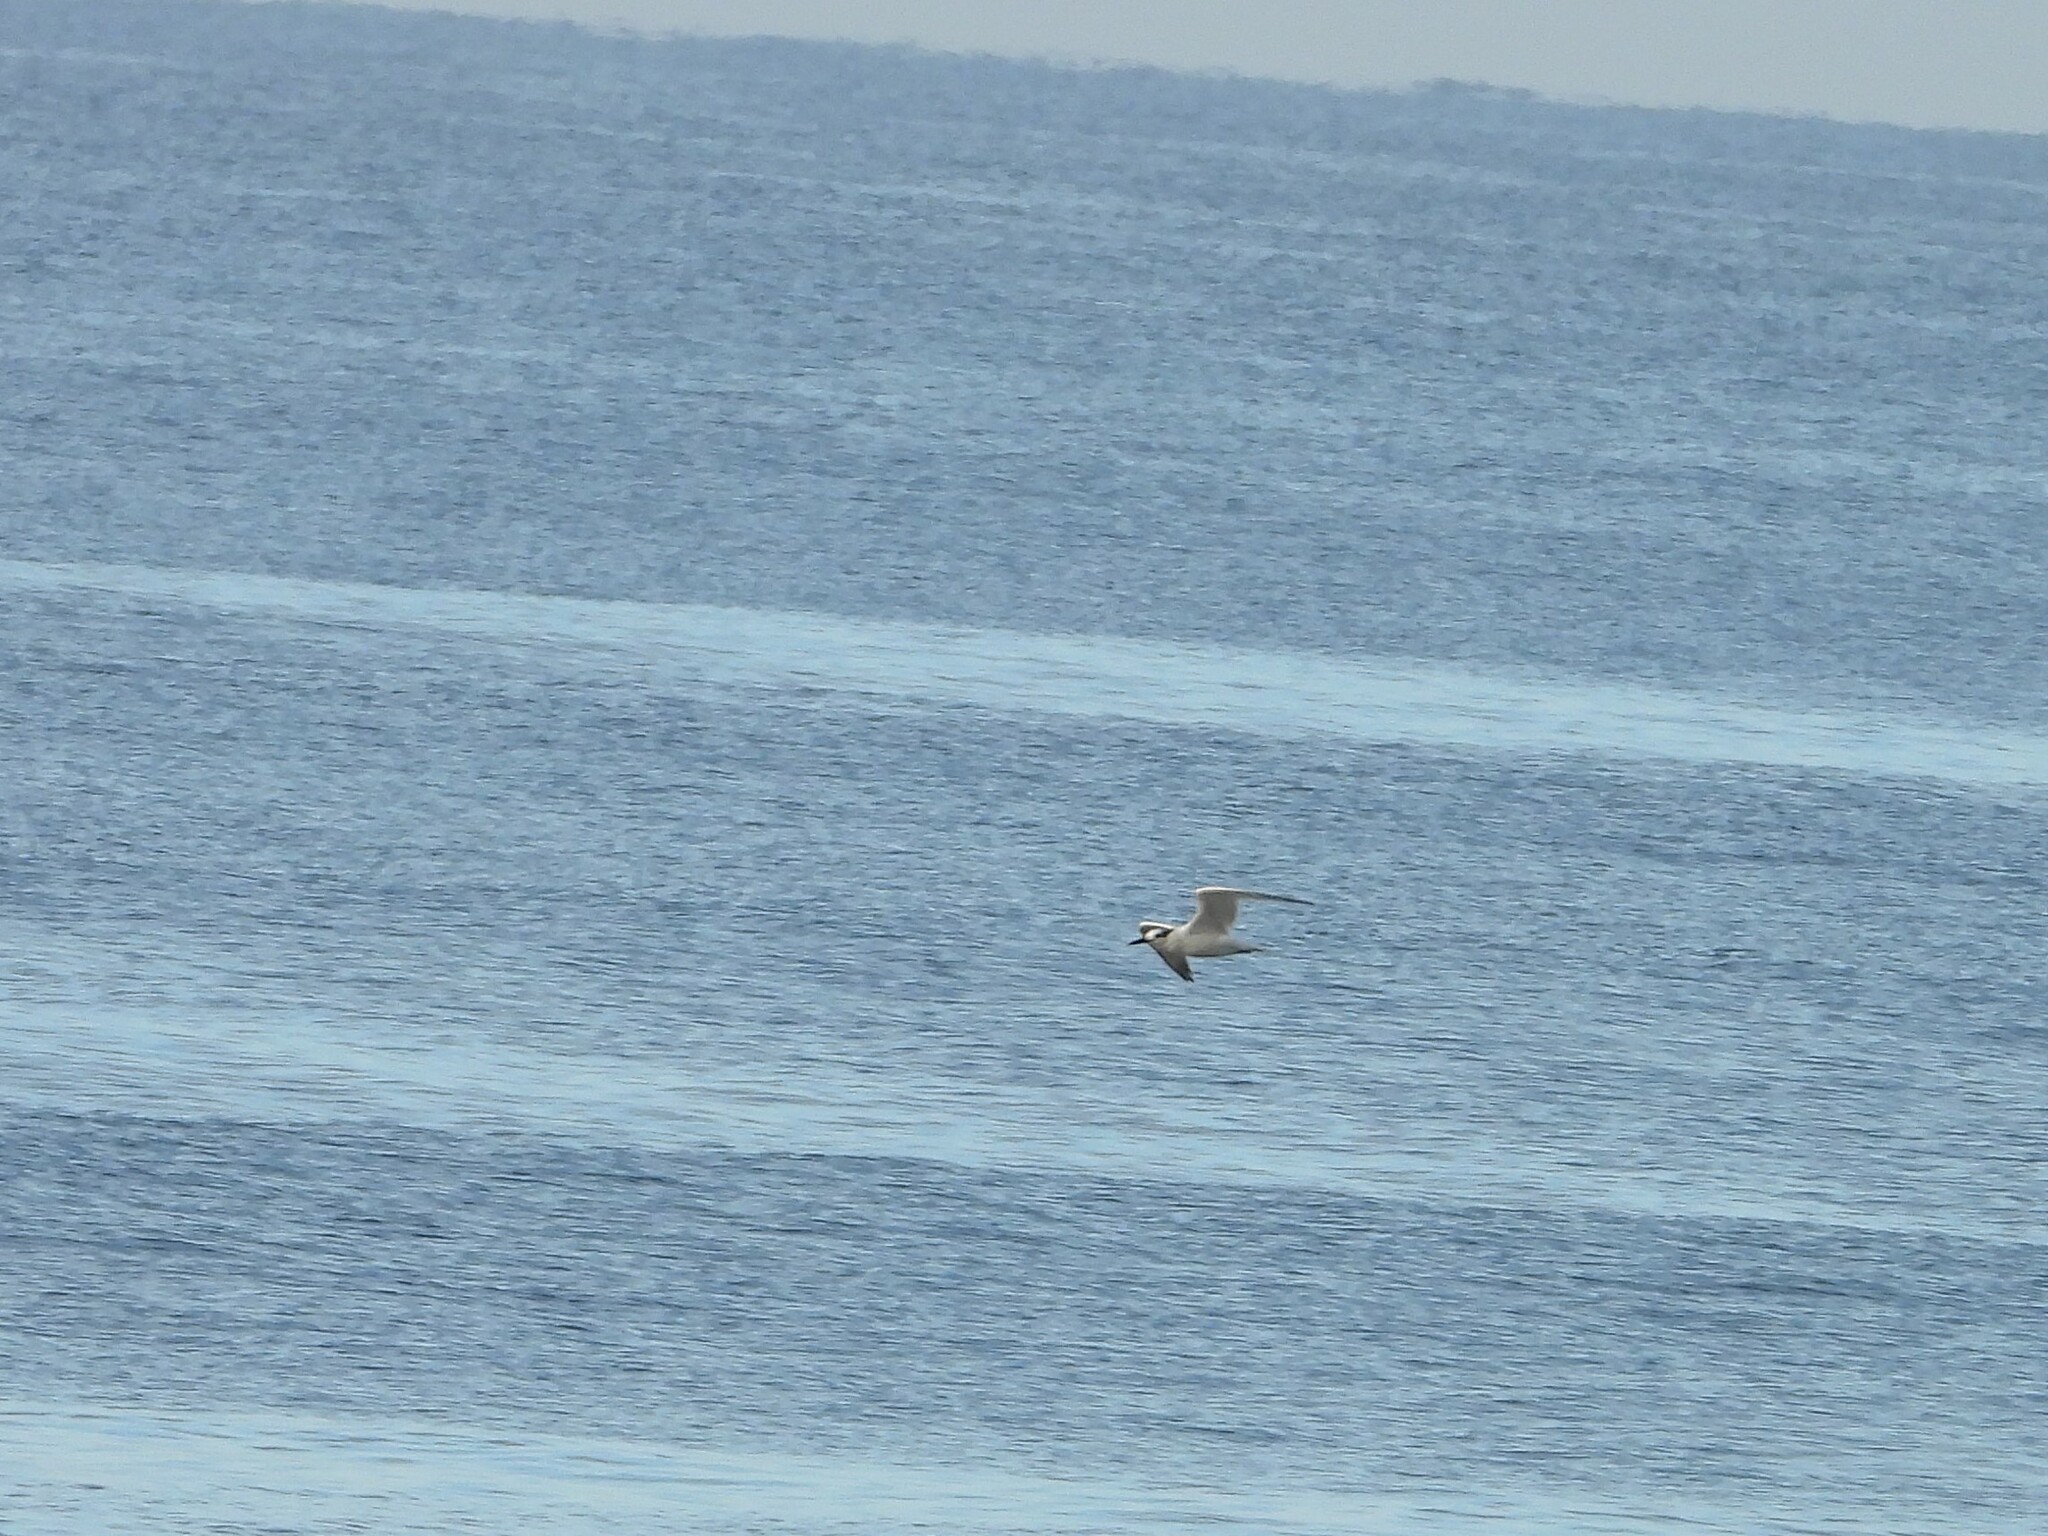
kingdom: Animalia
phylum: Chordata
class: Aves
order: Charadriiformes
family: Laridae
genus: Thalasseus
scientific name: Thalasseus sandvicensis
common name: Sandwich tern
